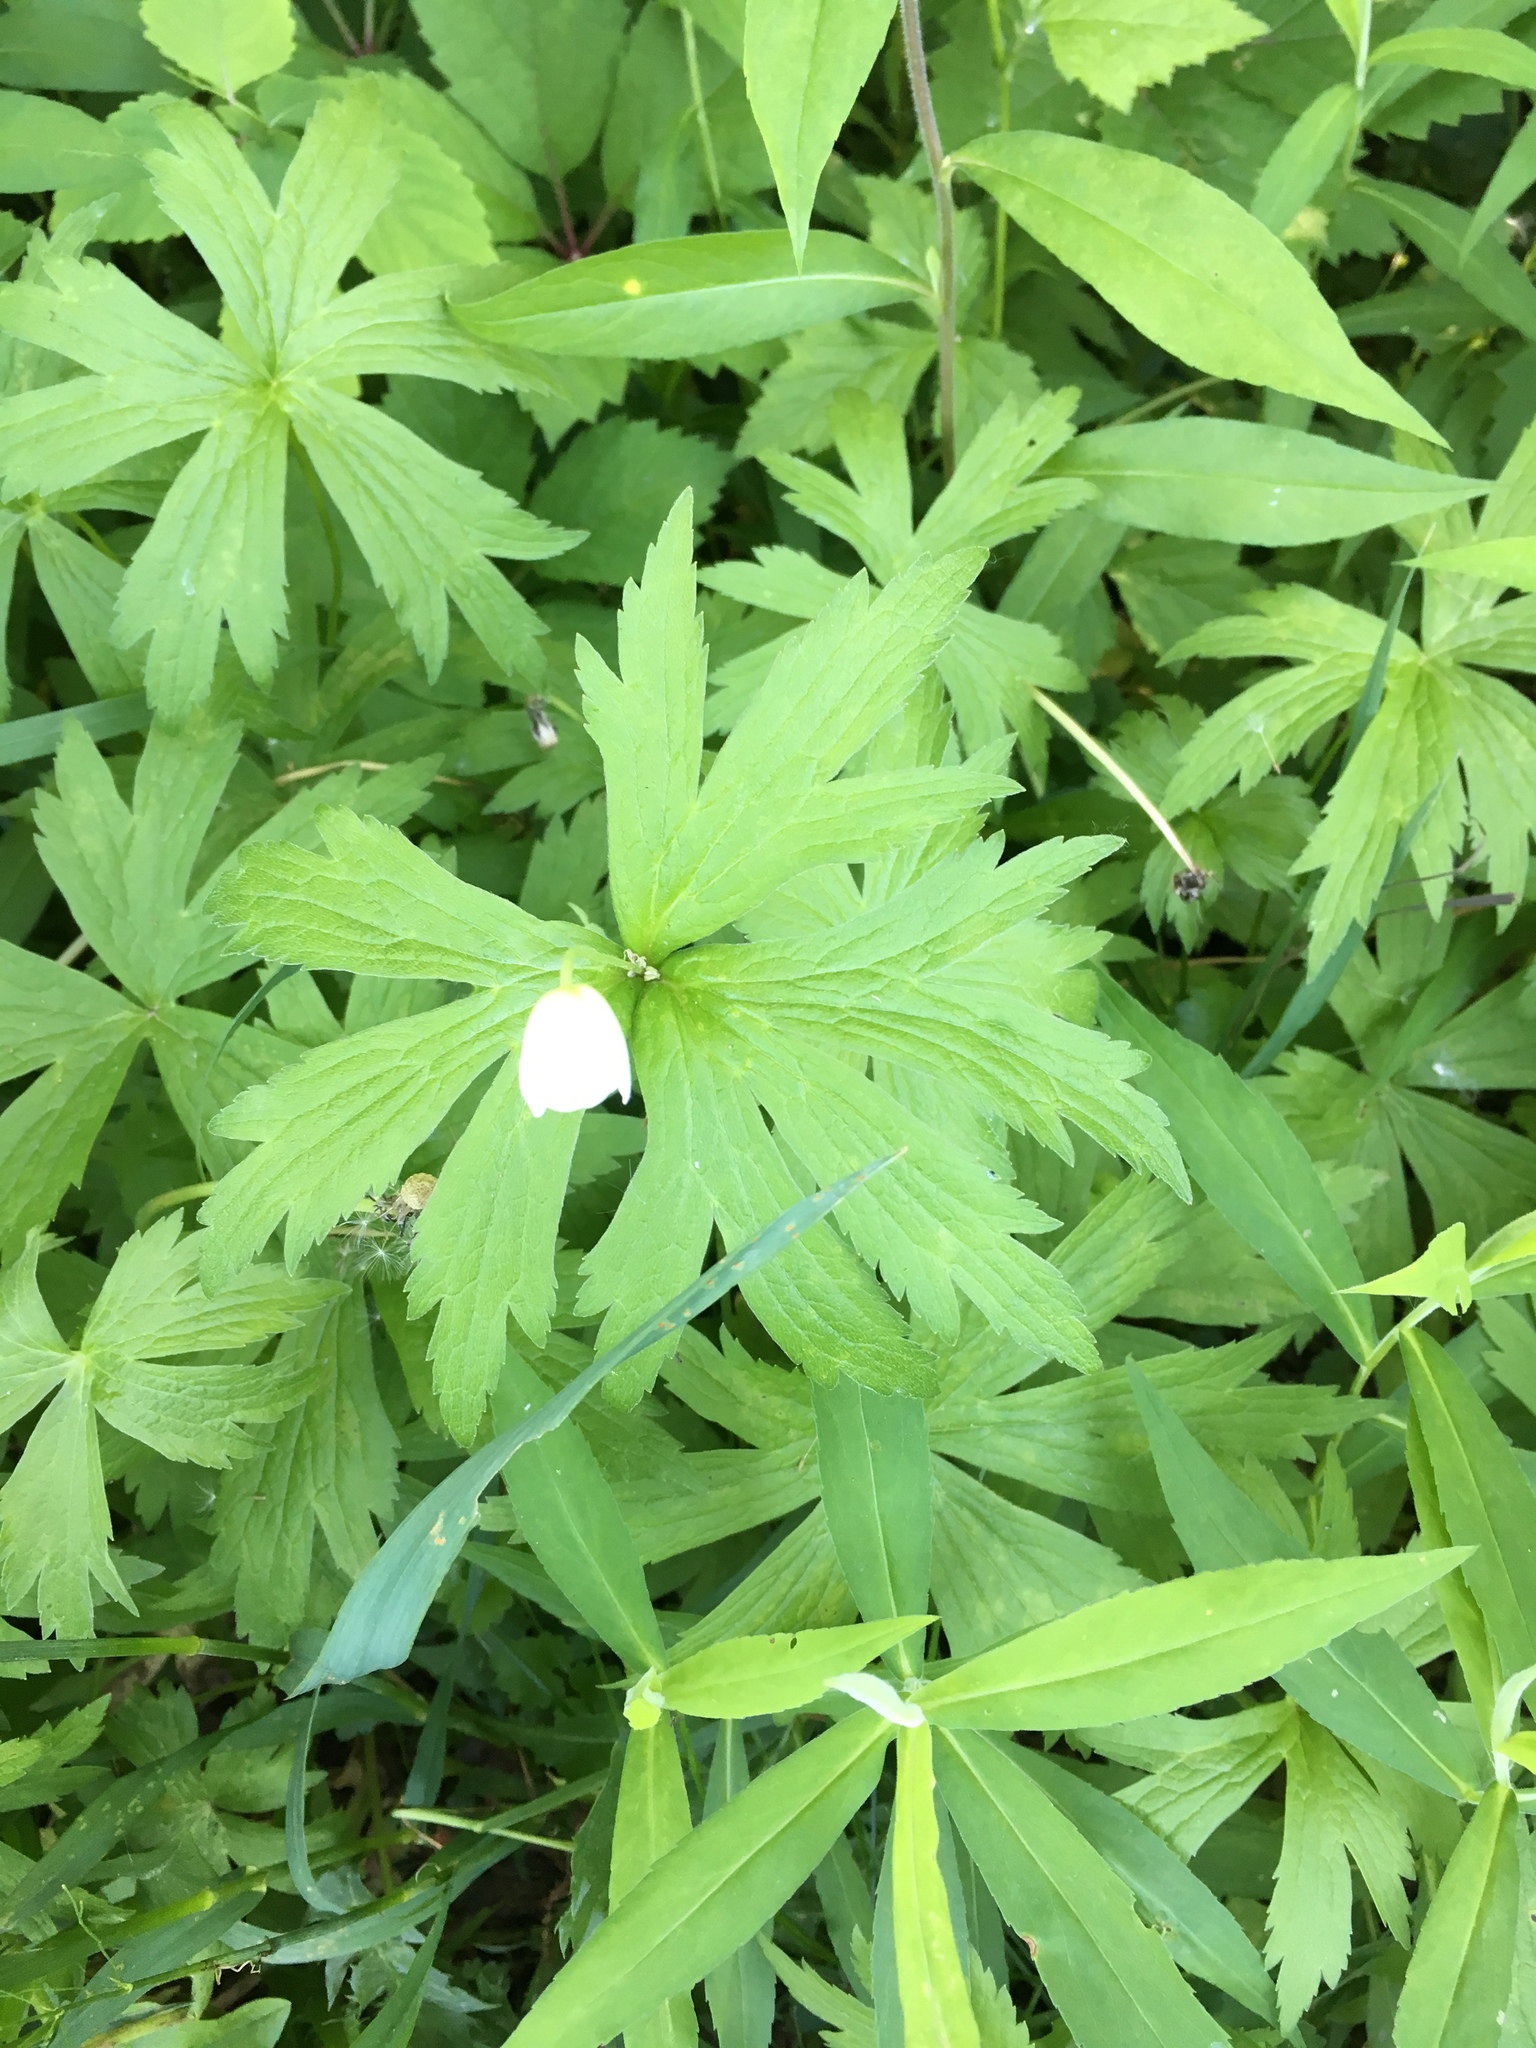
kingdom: Plantae
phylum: Tracheophyta
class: Magnoliopsida
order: Ranunculales
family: Ranunculaceae
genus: Anemonastrum
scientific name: Anemonastrum canadense
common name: Canada anemone
